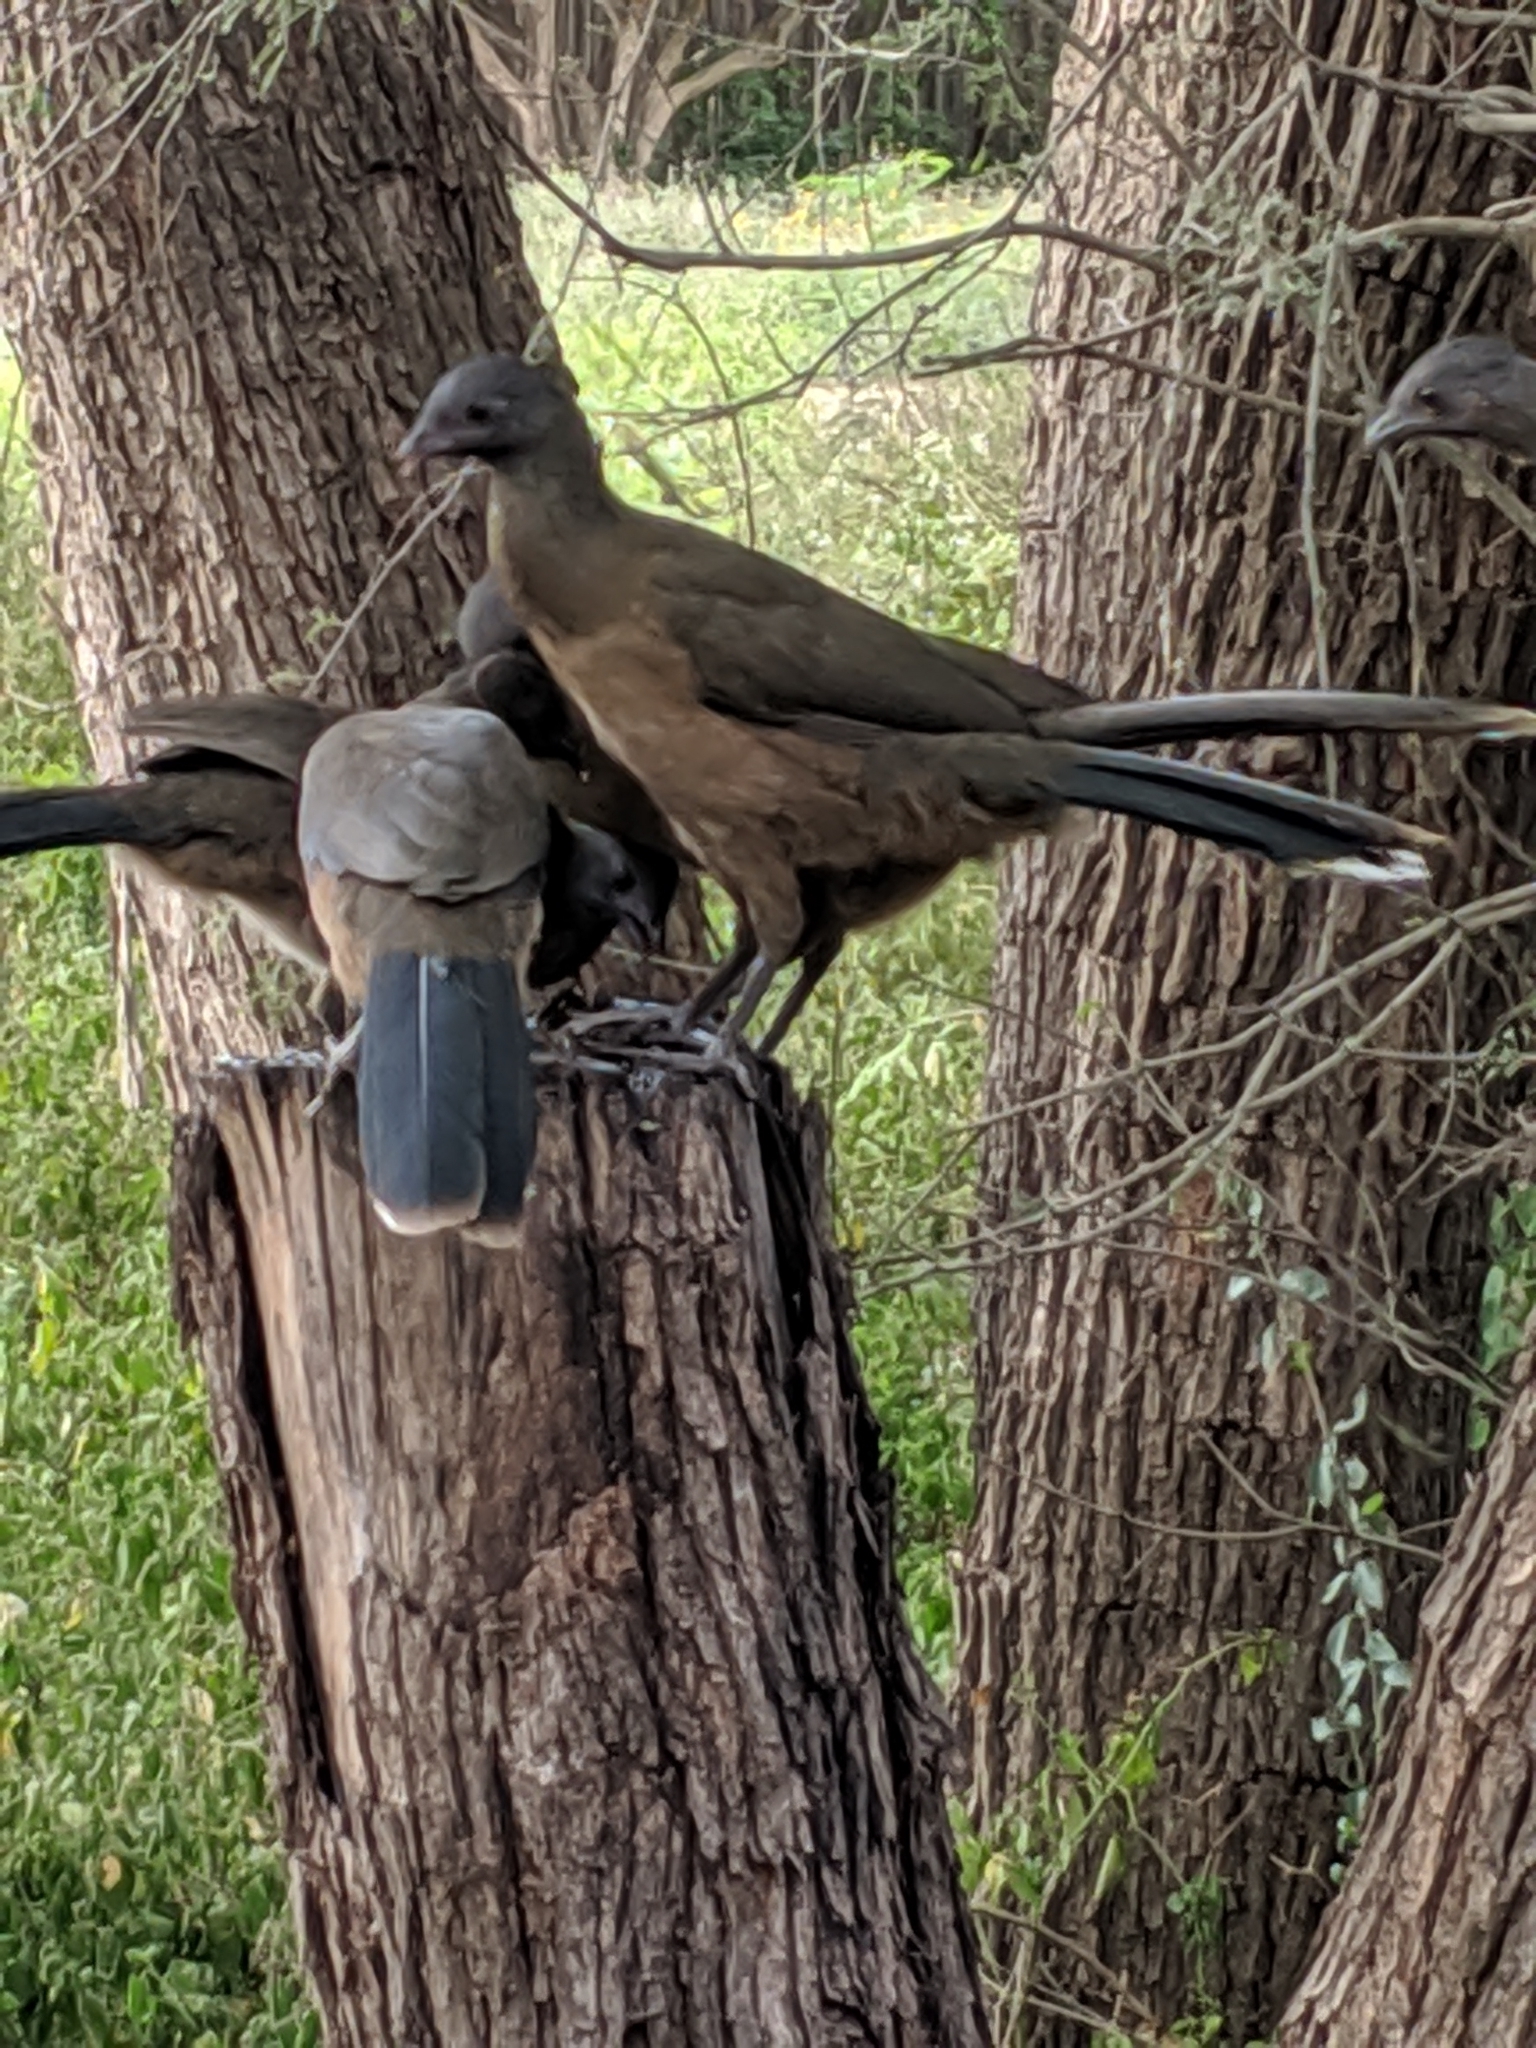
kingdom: Animalia
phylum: Chordata
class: Aves
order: Galliformes
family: Cracidae
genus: Ortalis
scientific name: Ortalis vetula
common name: Plain chachalaca
